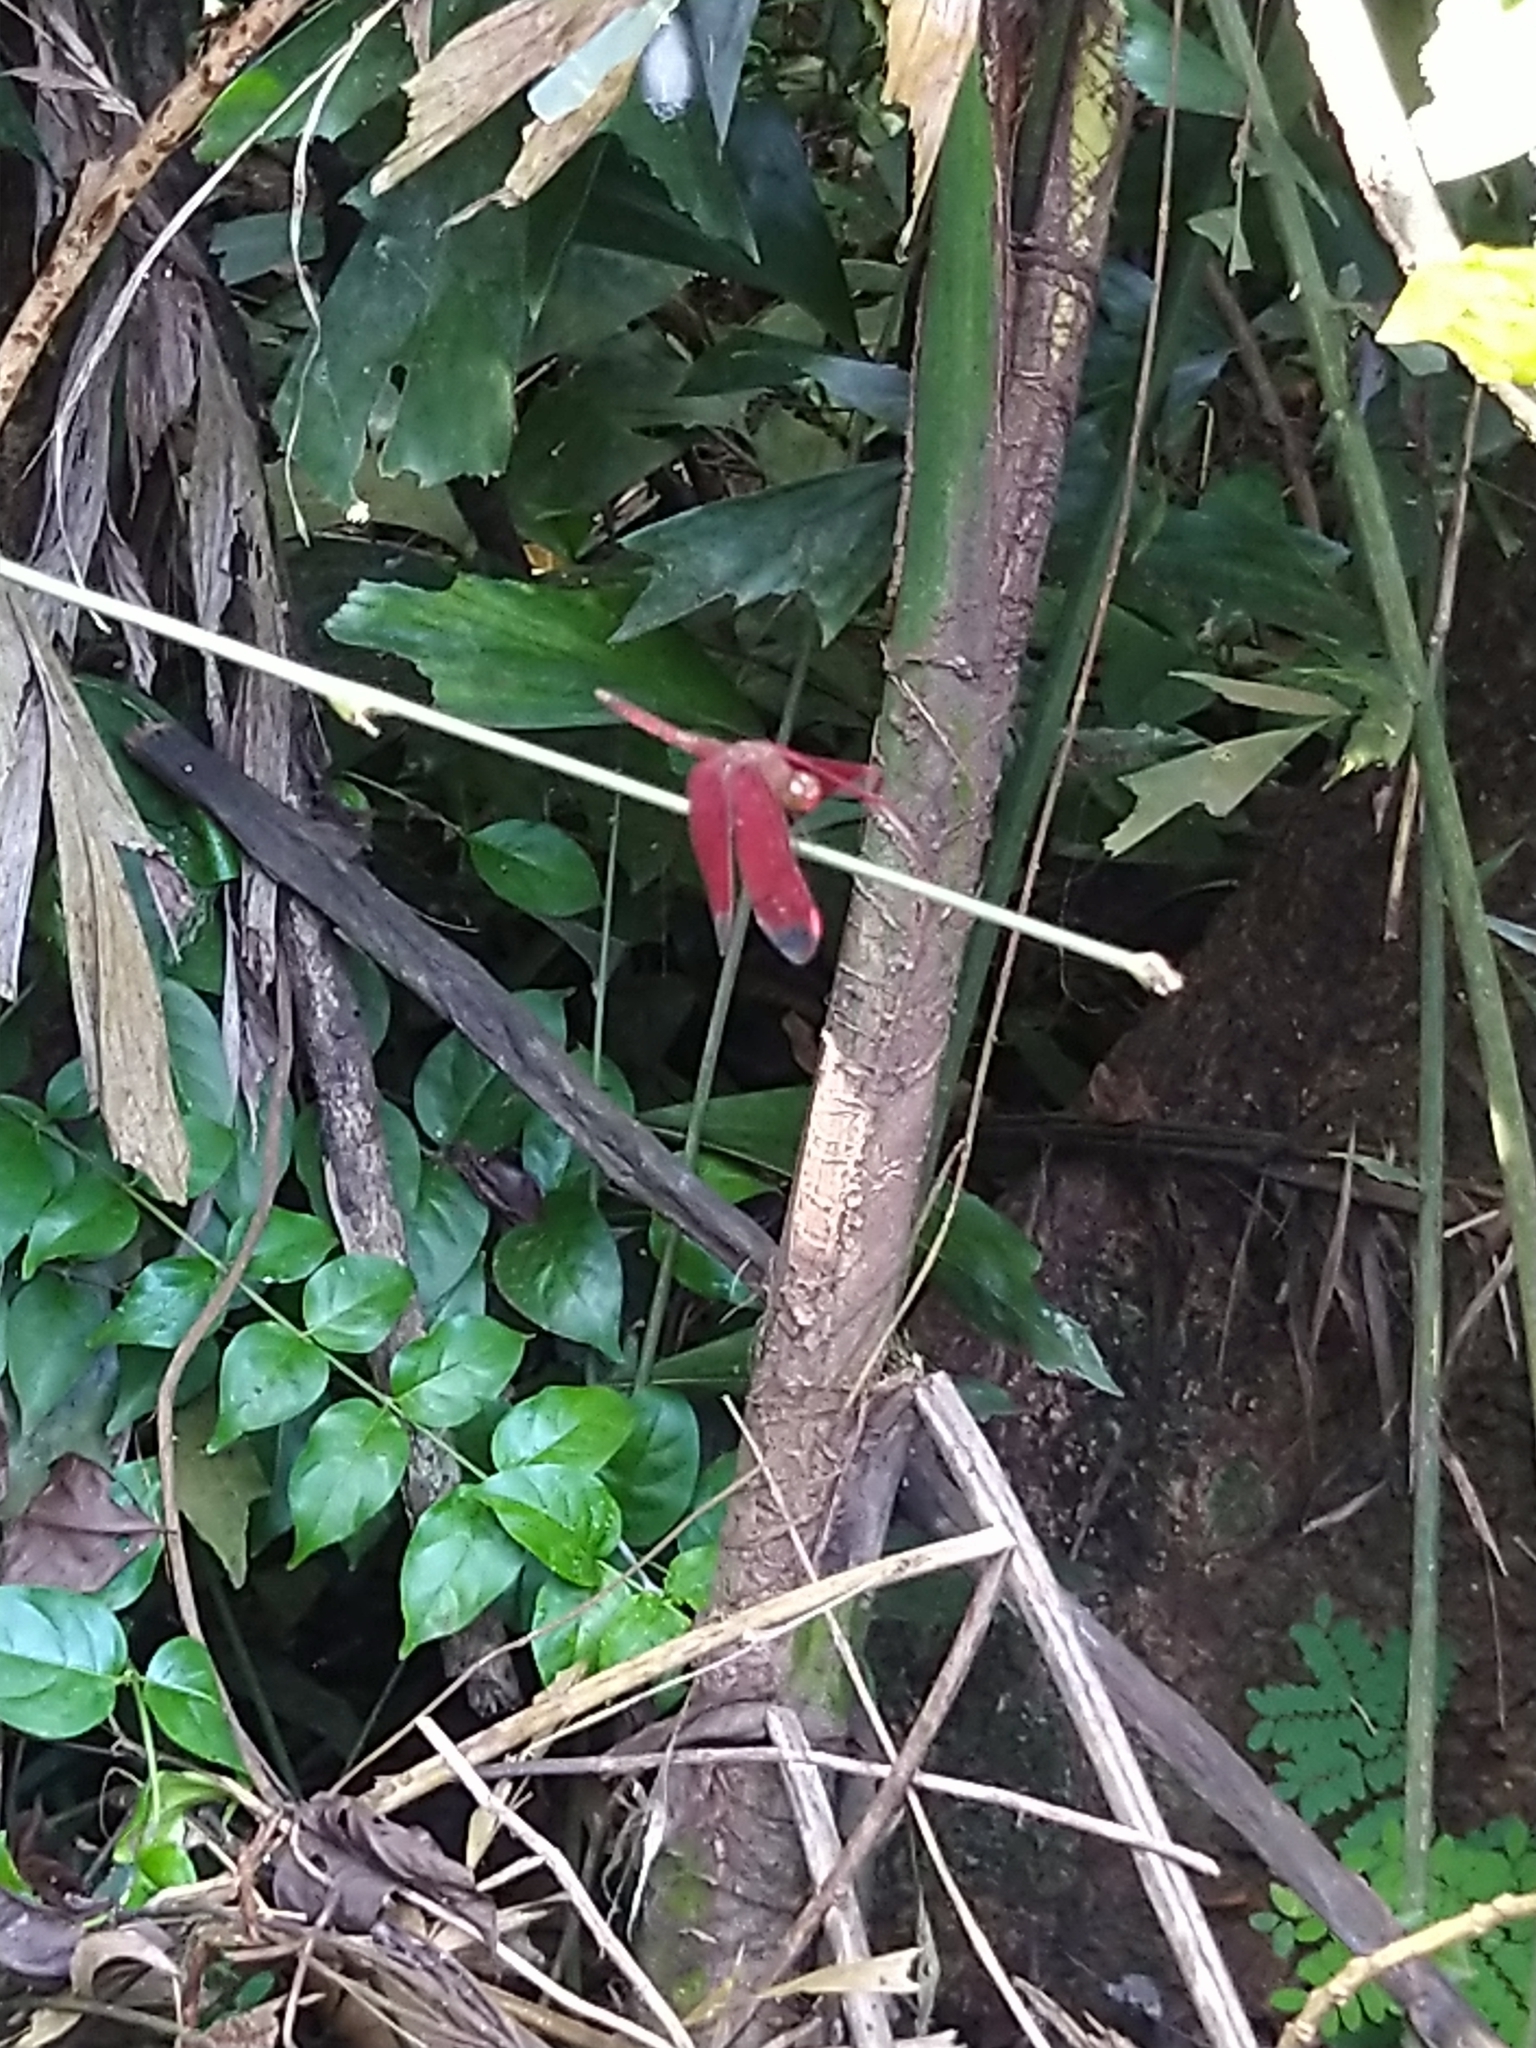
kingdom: Animalia
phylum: Arthropoda
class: Insecta
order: Odonata
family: Libellulidae
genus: Neurothemis
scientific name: Neurothemis fulvia
